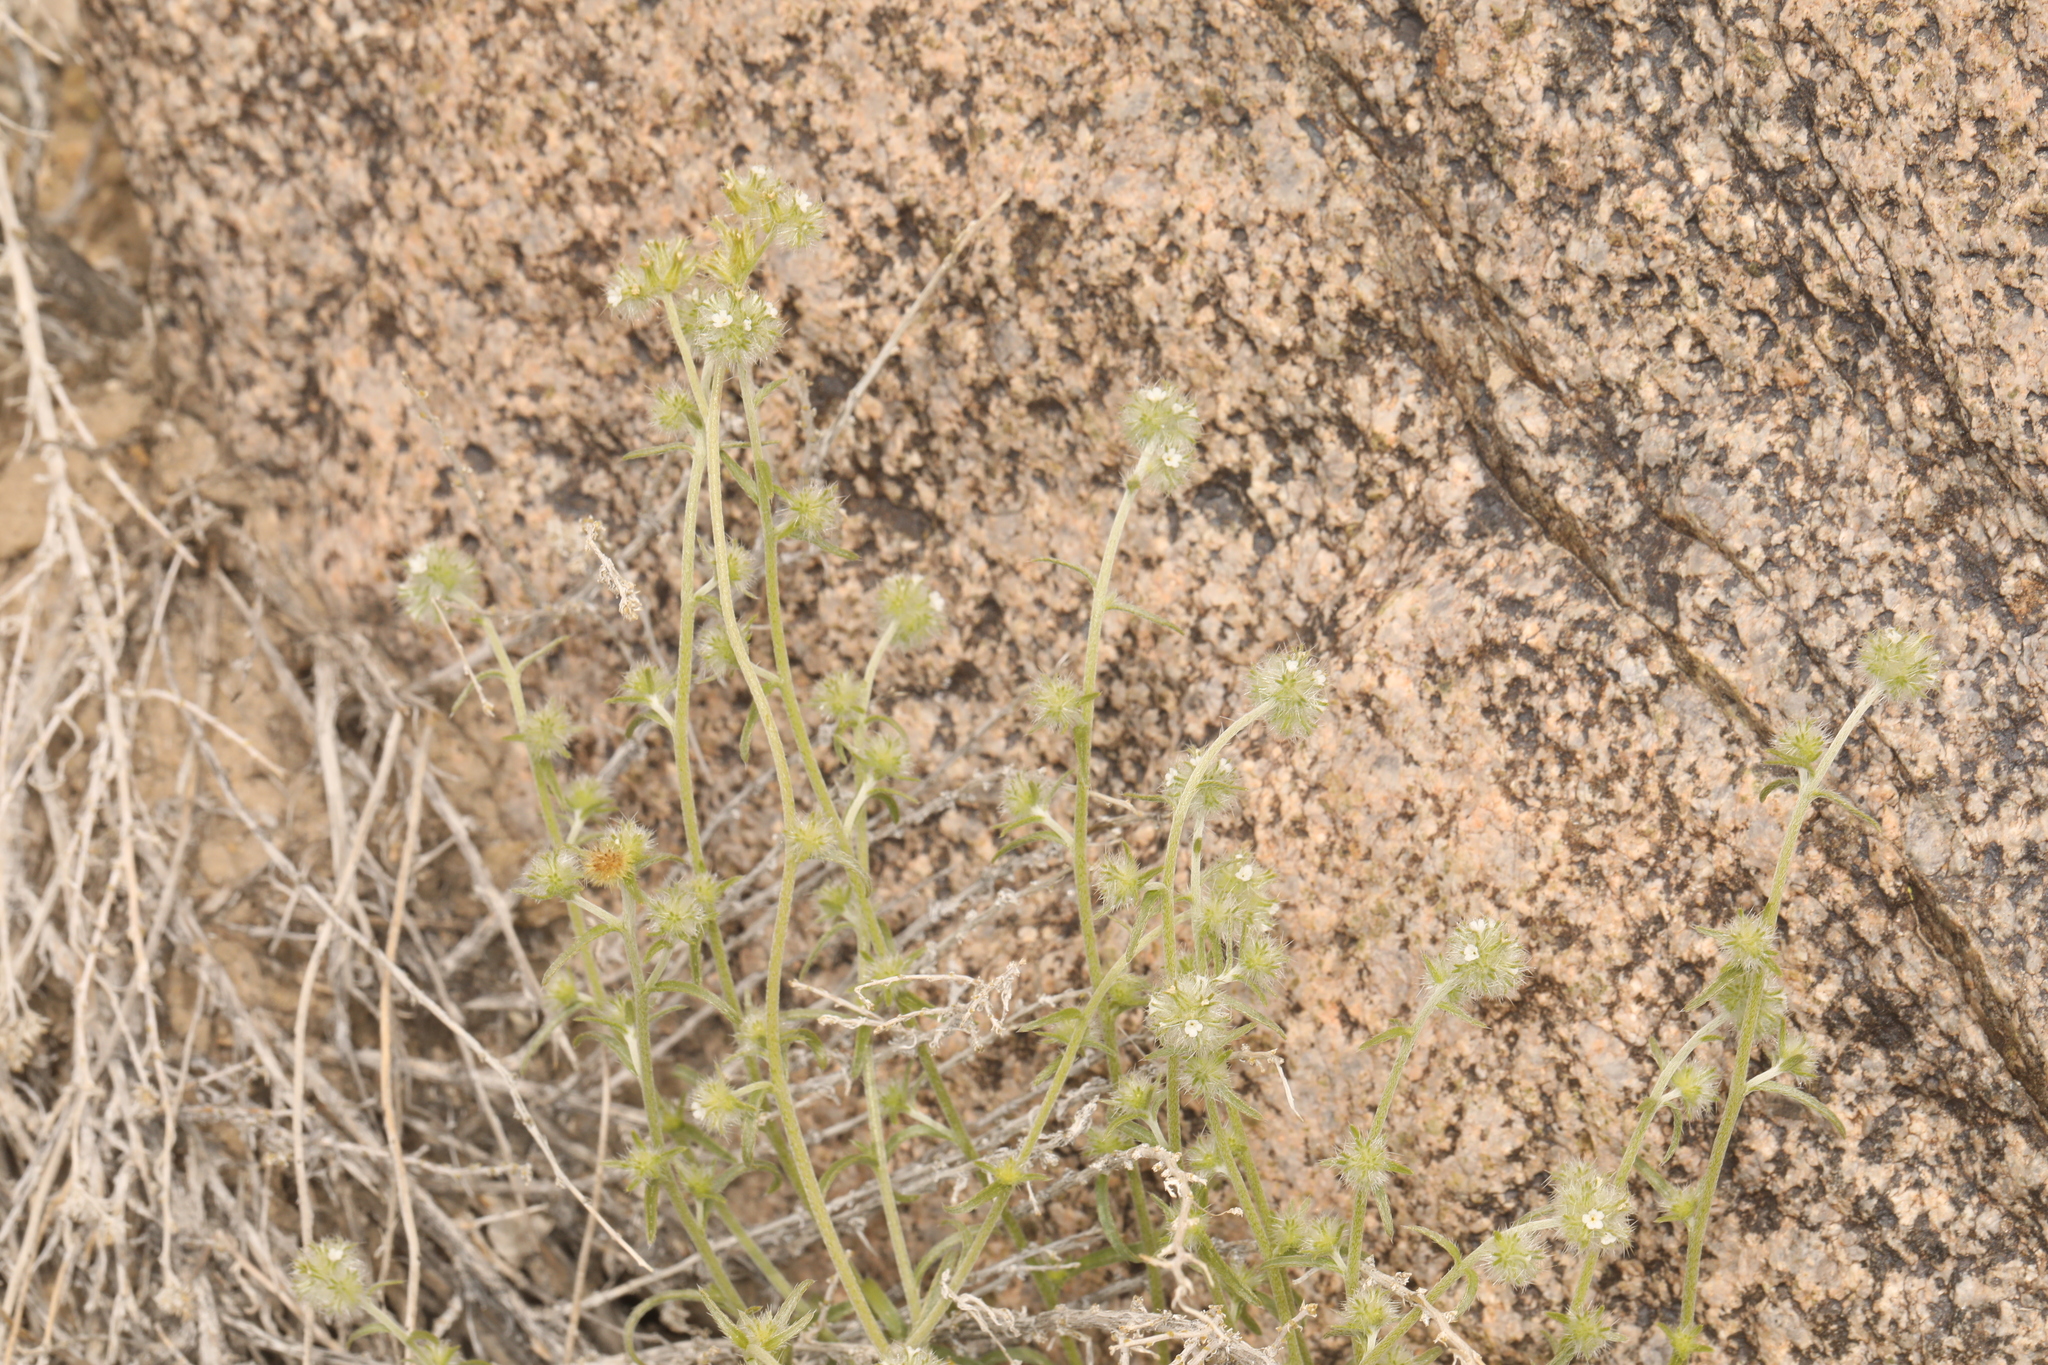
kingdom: Plantae
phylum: Tracheophyta
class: Magnoliopsida
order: Boraginales
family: Boraginaceae
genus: Cryptantha
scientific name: Cryptantha nevadensis
